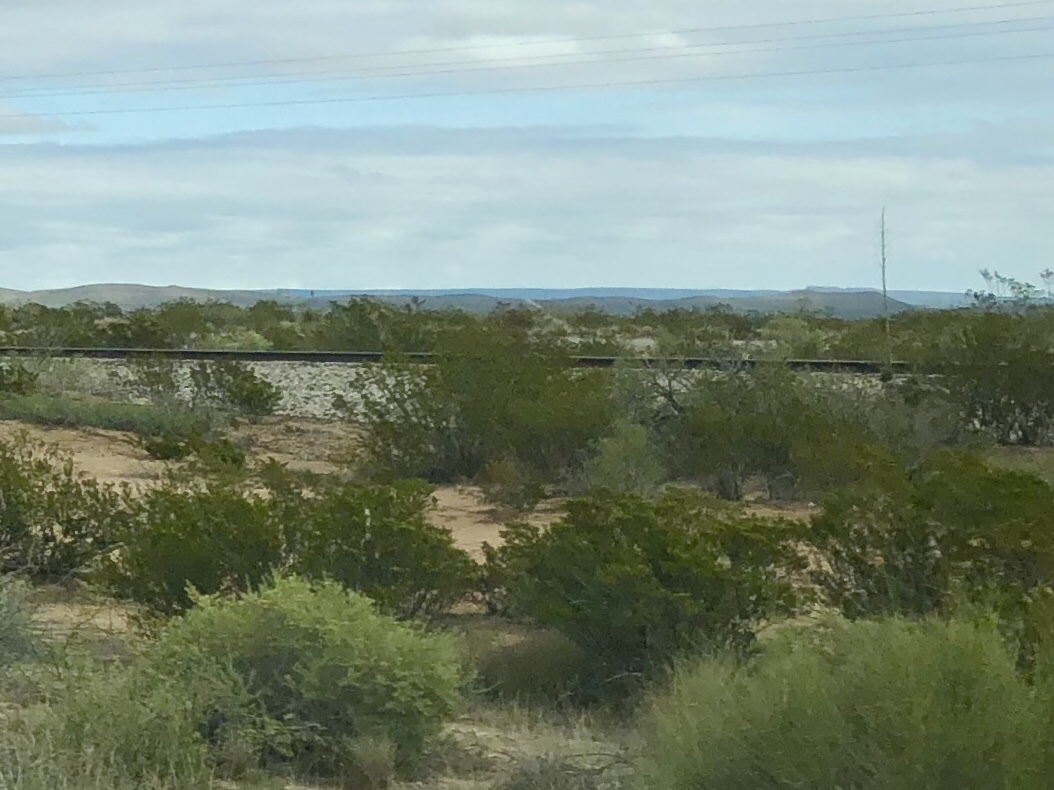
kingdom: Plantae
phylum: Tracheophyta
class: Magnoliopsida
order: Zygophyllales
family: Zygophyllaceae
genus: Larrea
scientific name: Larrea tridentata
